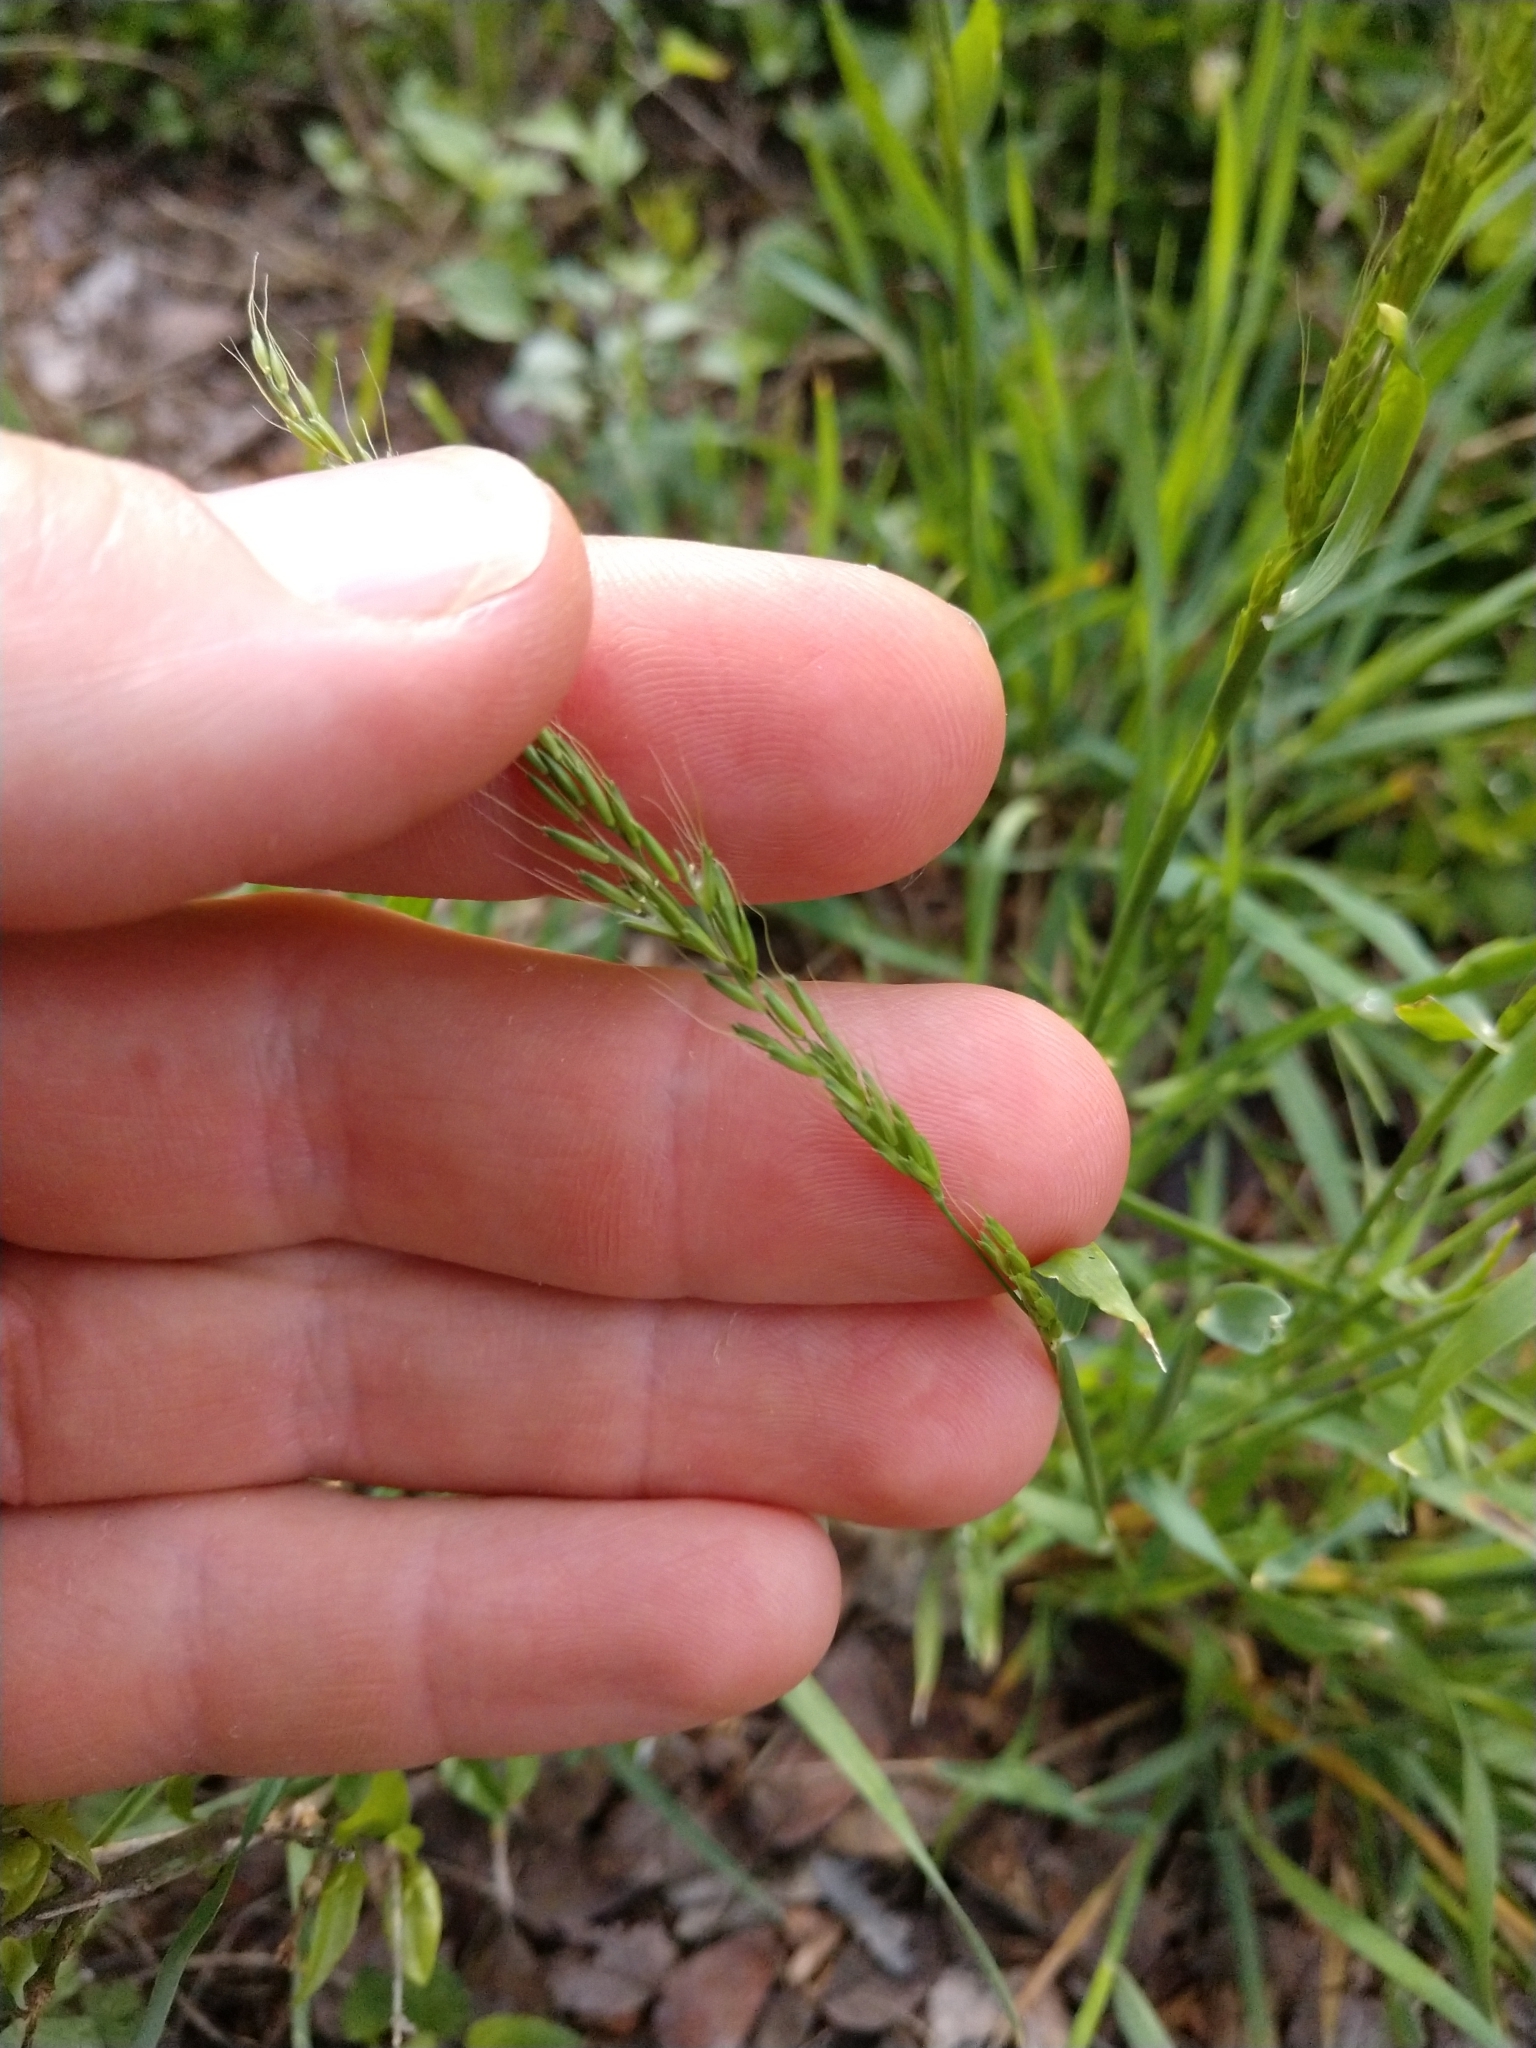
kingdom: Plantae
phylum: Tracheophyta
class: Liliopsida
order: Poales
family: Poaceae
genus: Limnodea
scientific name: Limnodea arkansana
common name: Ozark-grass
